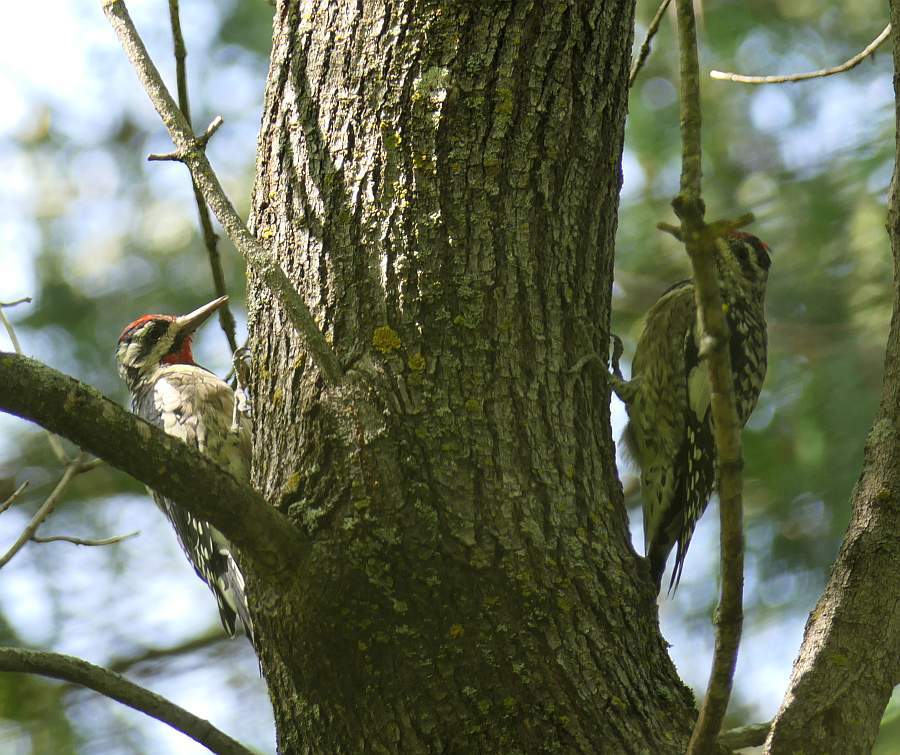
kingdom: Animalia
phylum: Chordata
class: Aves
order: Piciformes
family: Picidae
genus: Sphyrapicus
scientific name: Sphyrapicus varius
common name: Yellow-bellied sapsucker
